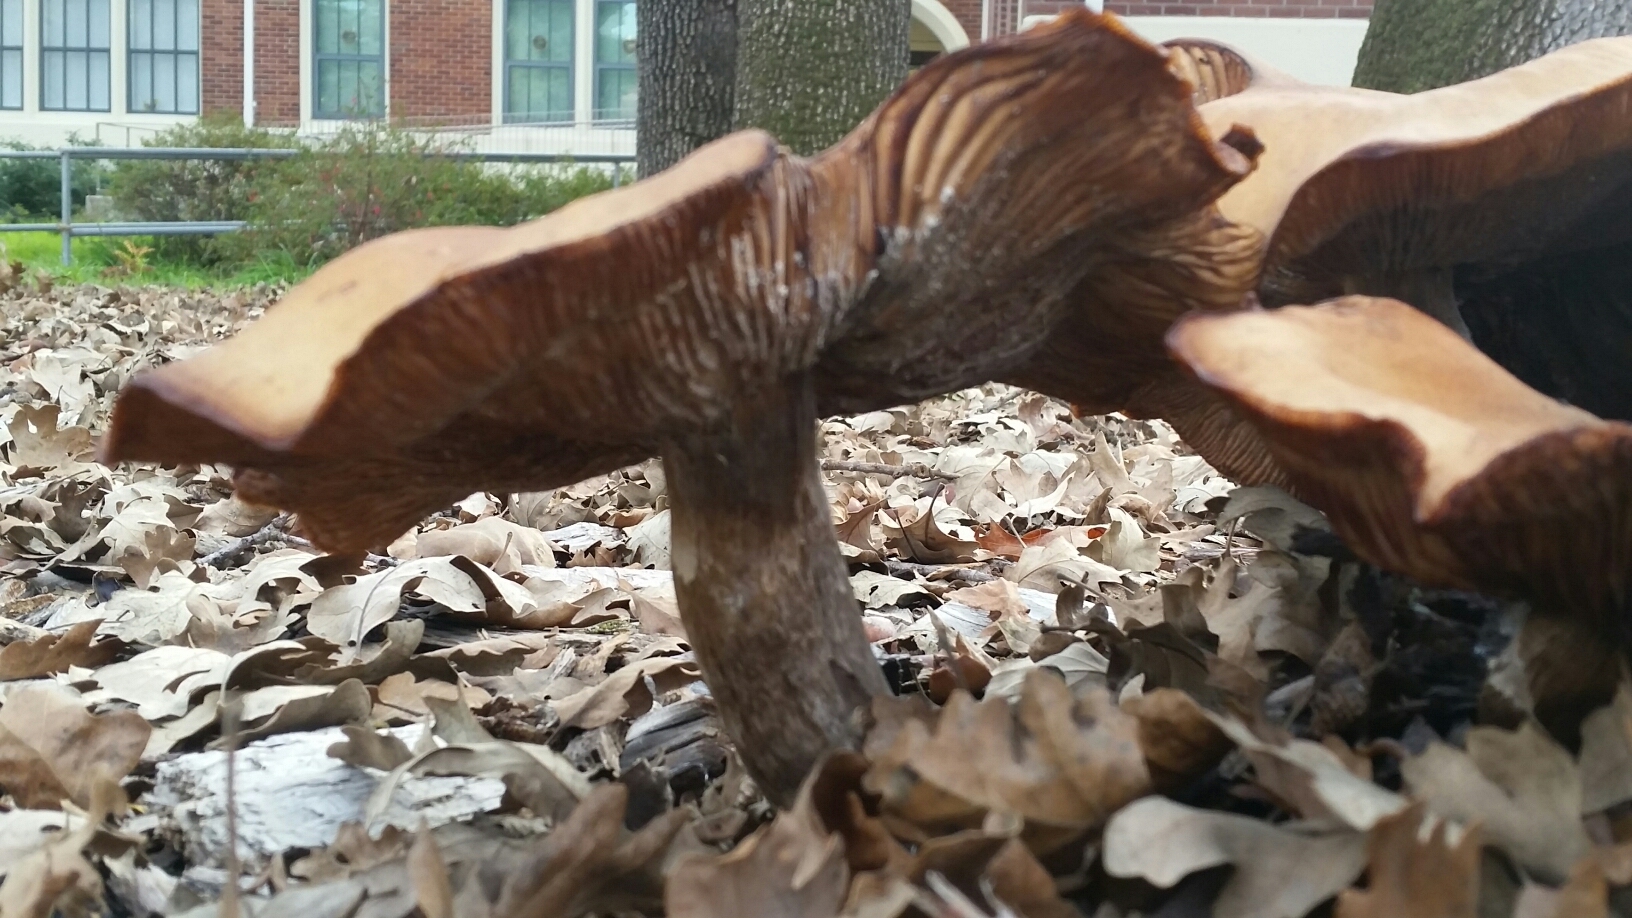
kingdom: Fungi
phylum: Basidiomycota
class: Agaricomycetes
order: Agaricales
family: Physalacriaceae
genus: Armillaria
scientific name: Armillaria mellea
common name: Honey fungus
